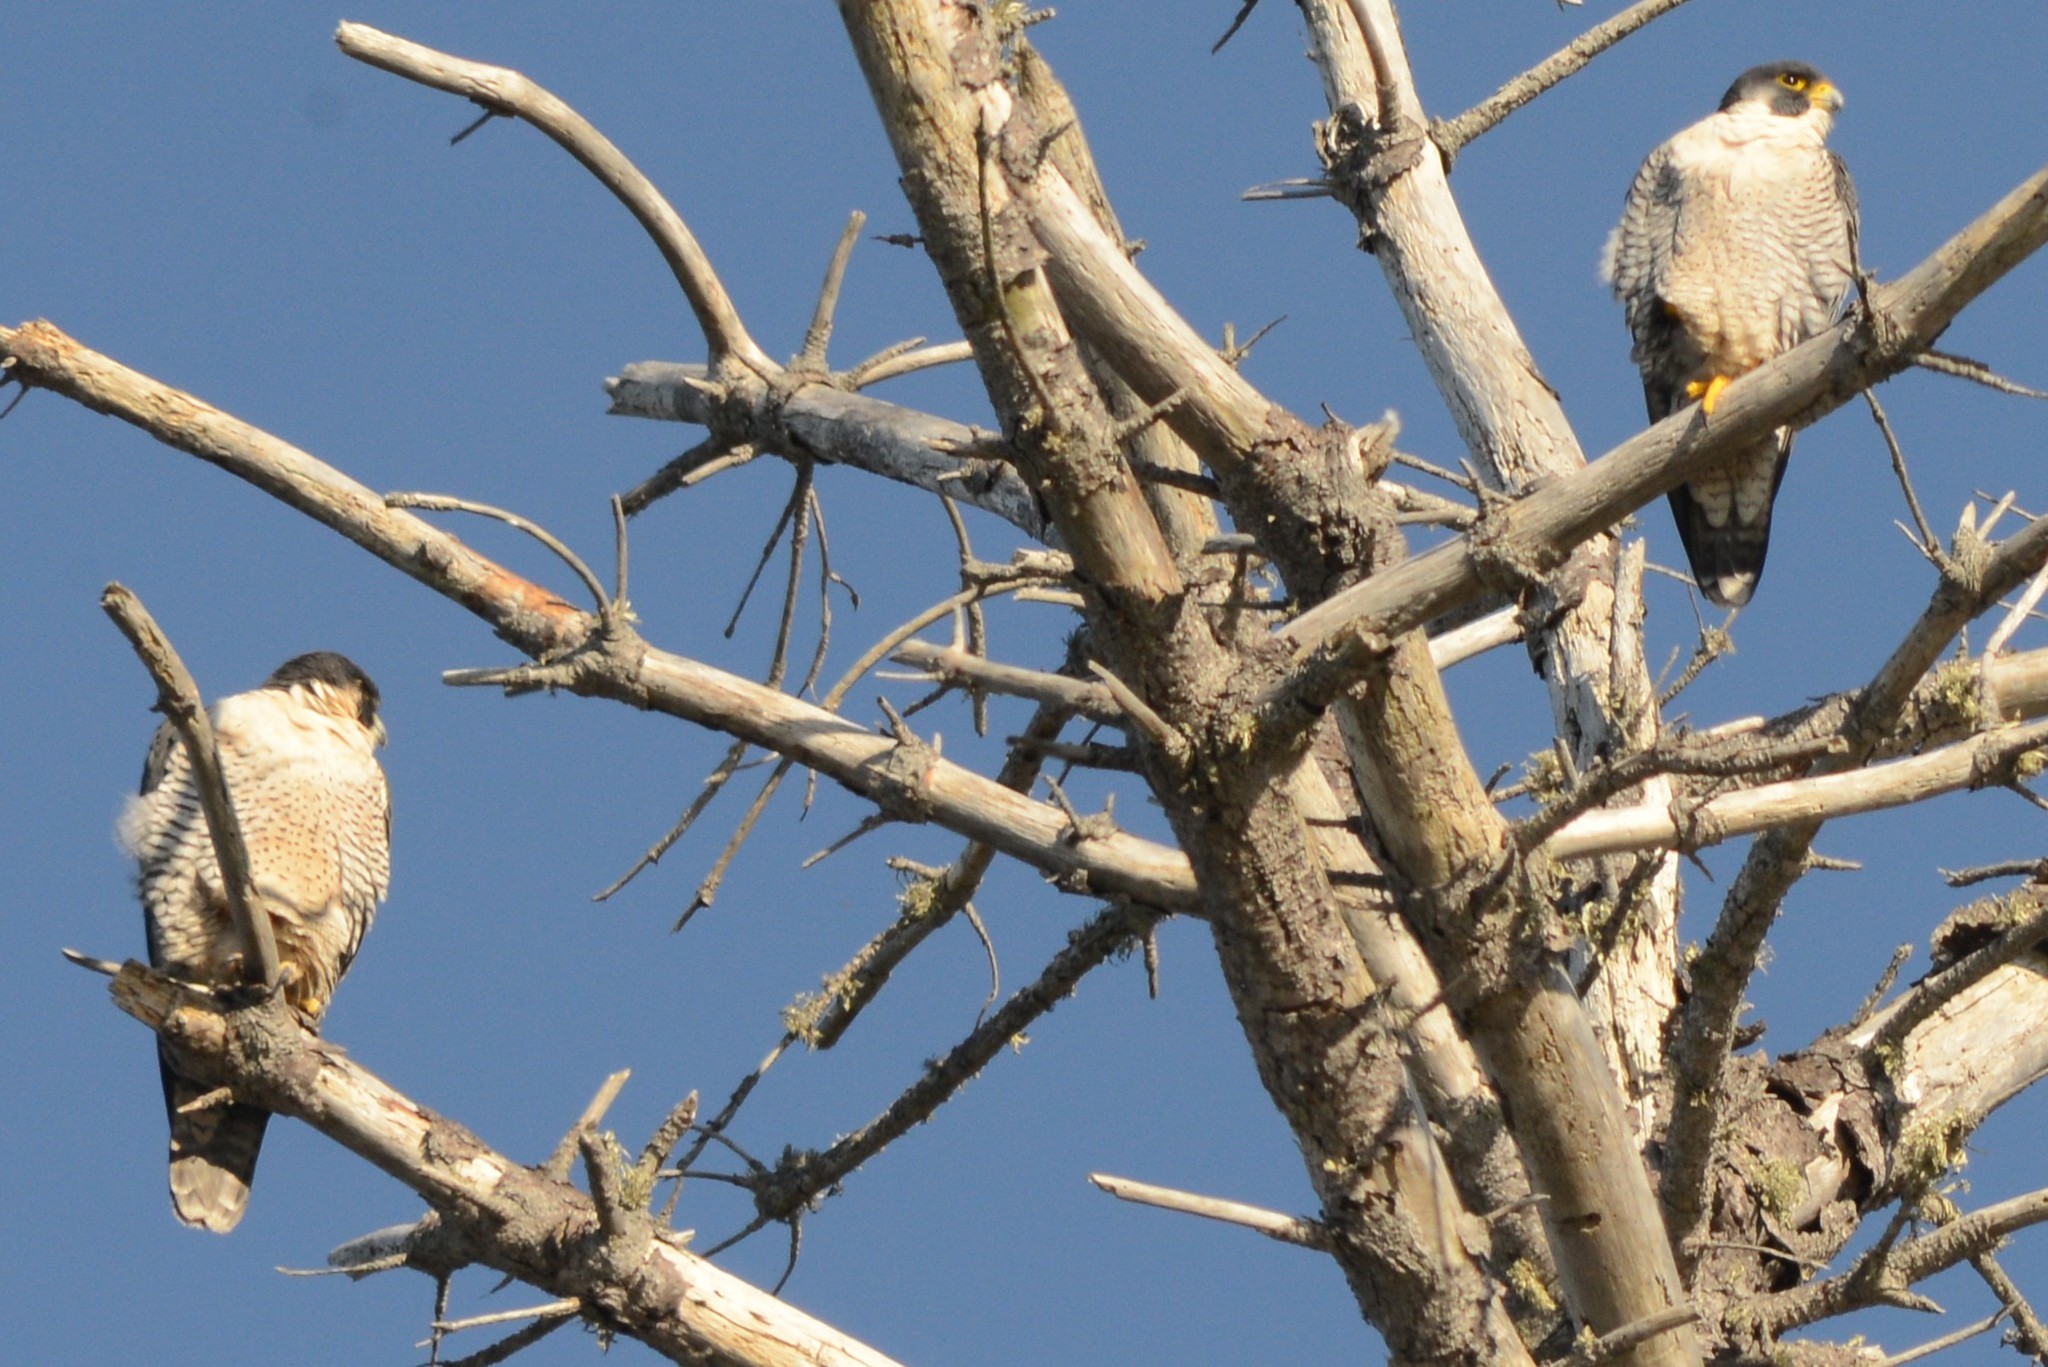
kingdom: Animalia
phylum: Chordata
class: Aves
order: Falconiformes
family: Falconidae
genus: Falco
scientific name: Falco peregrinus
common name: Peregrine falcon
